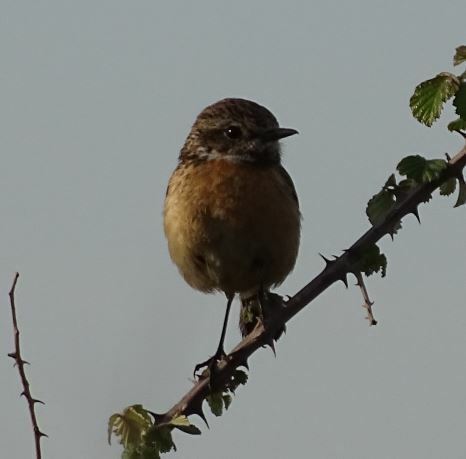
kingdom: Animalia
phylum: Chordata
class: Aves
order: Passeriformes
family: Muscicapidae
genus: Saxicola
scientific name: Saxicola rubicola
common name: European stonechat
